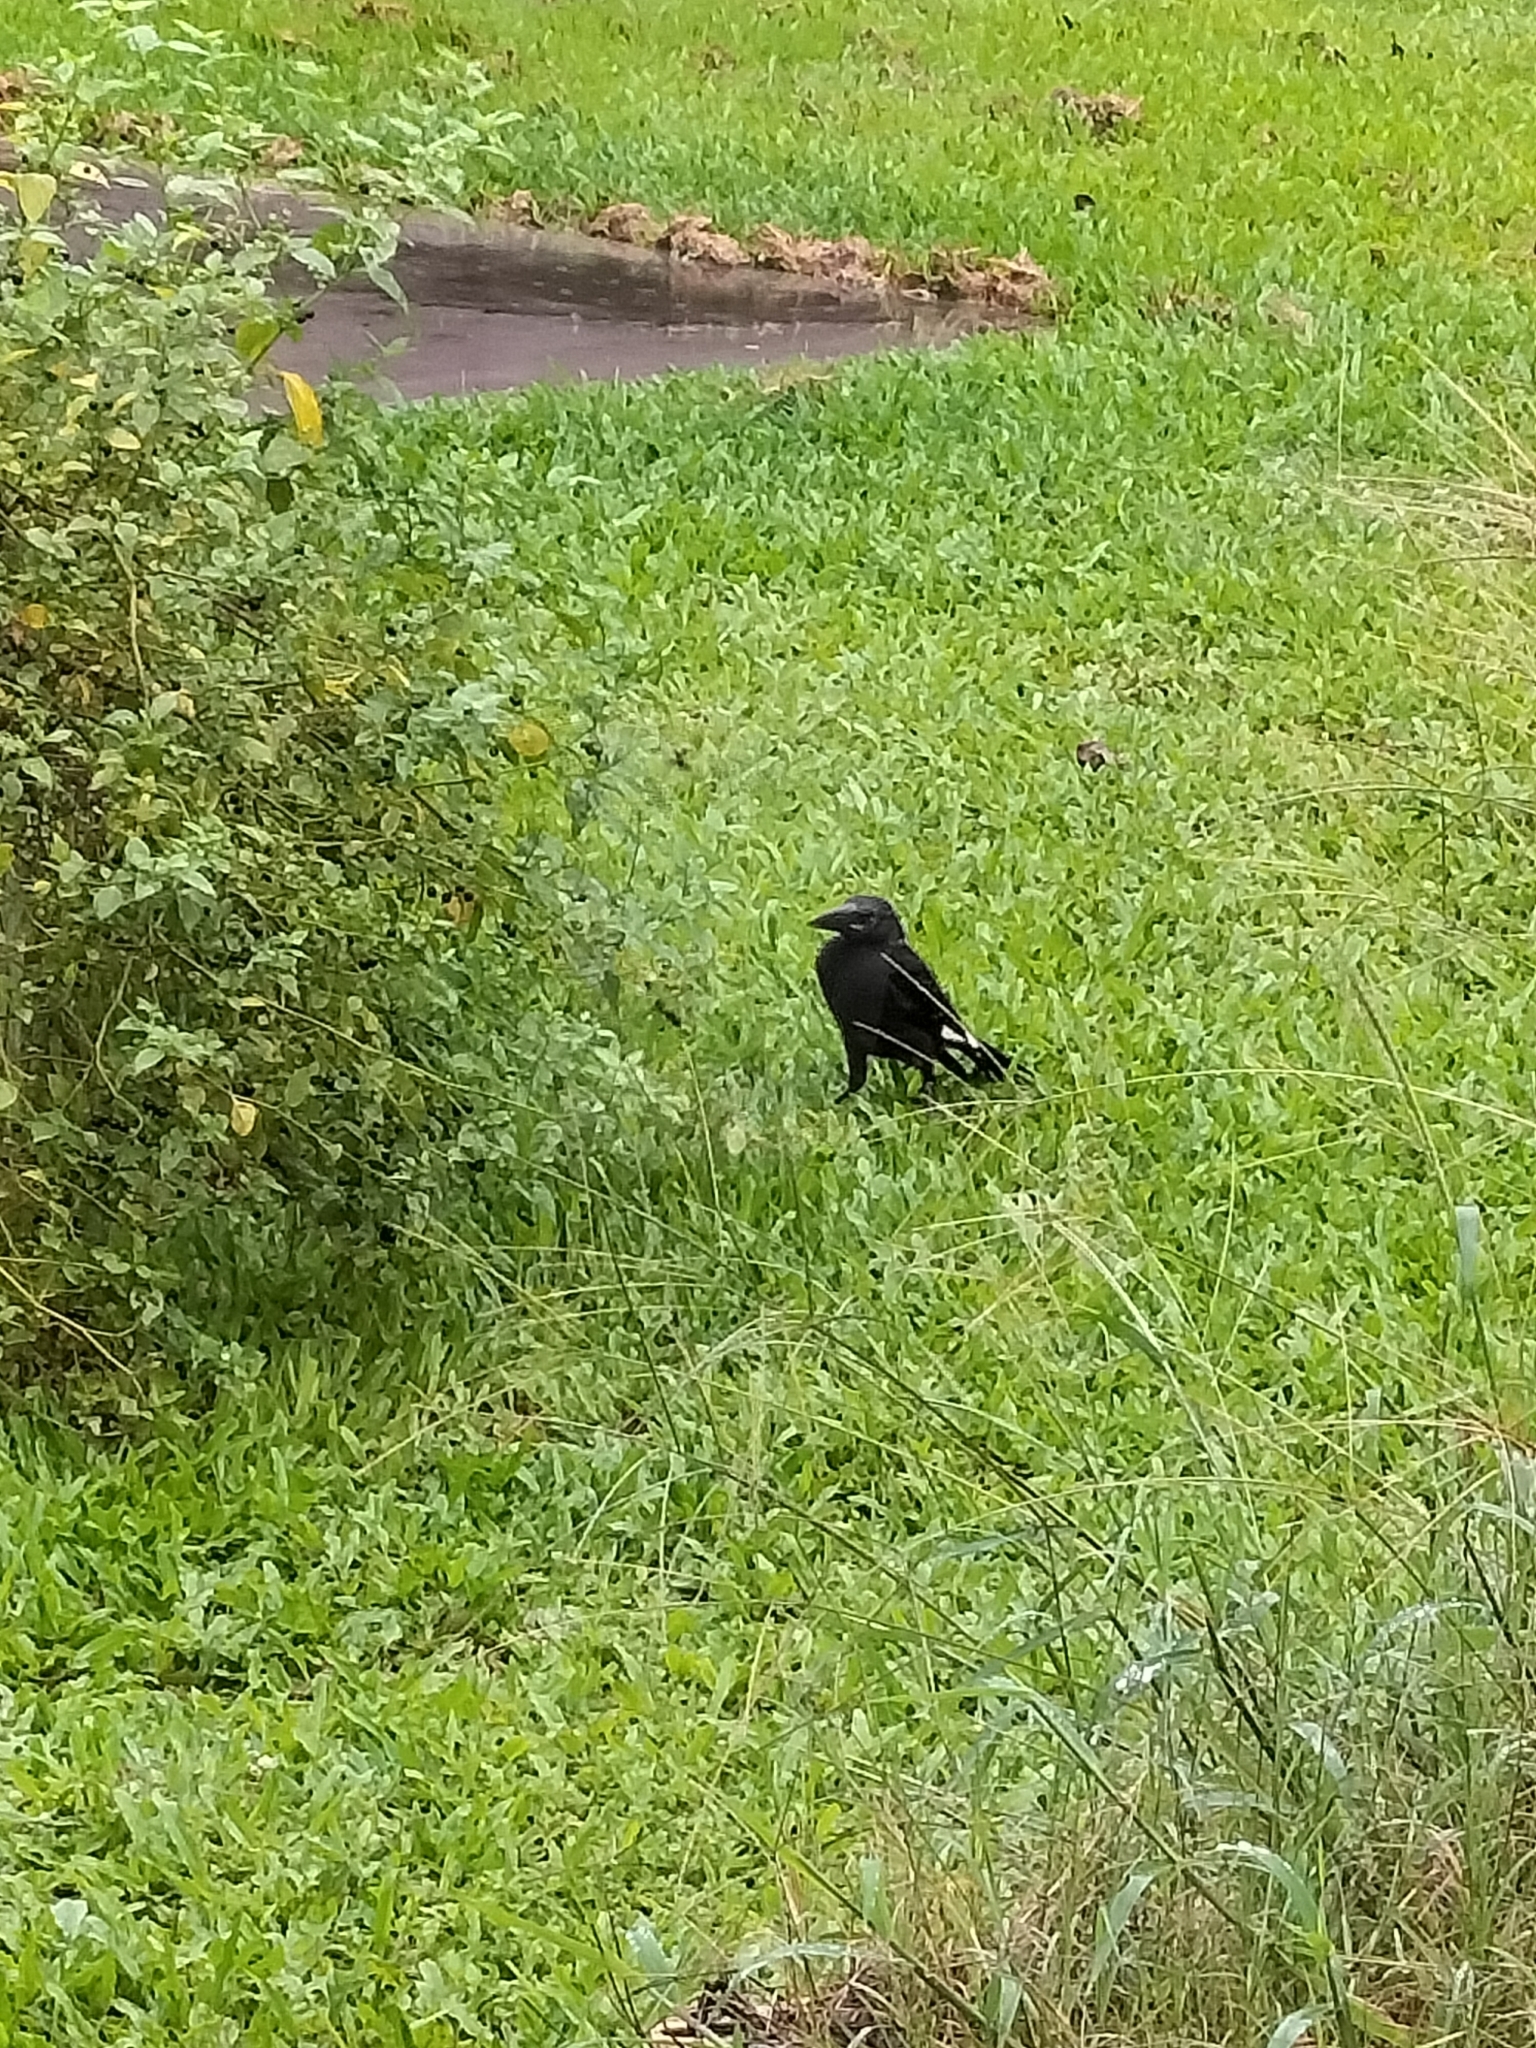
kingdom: Animalia
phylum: Chordata
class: Aves
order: Passeriformes
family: Cracticidae
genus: Strepera
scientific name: Strepera graculina
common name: Pied currawong
